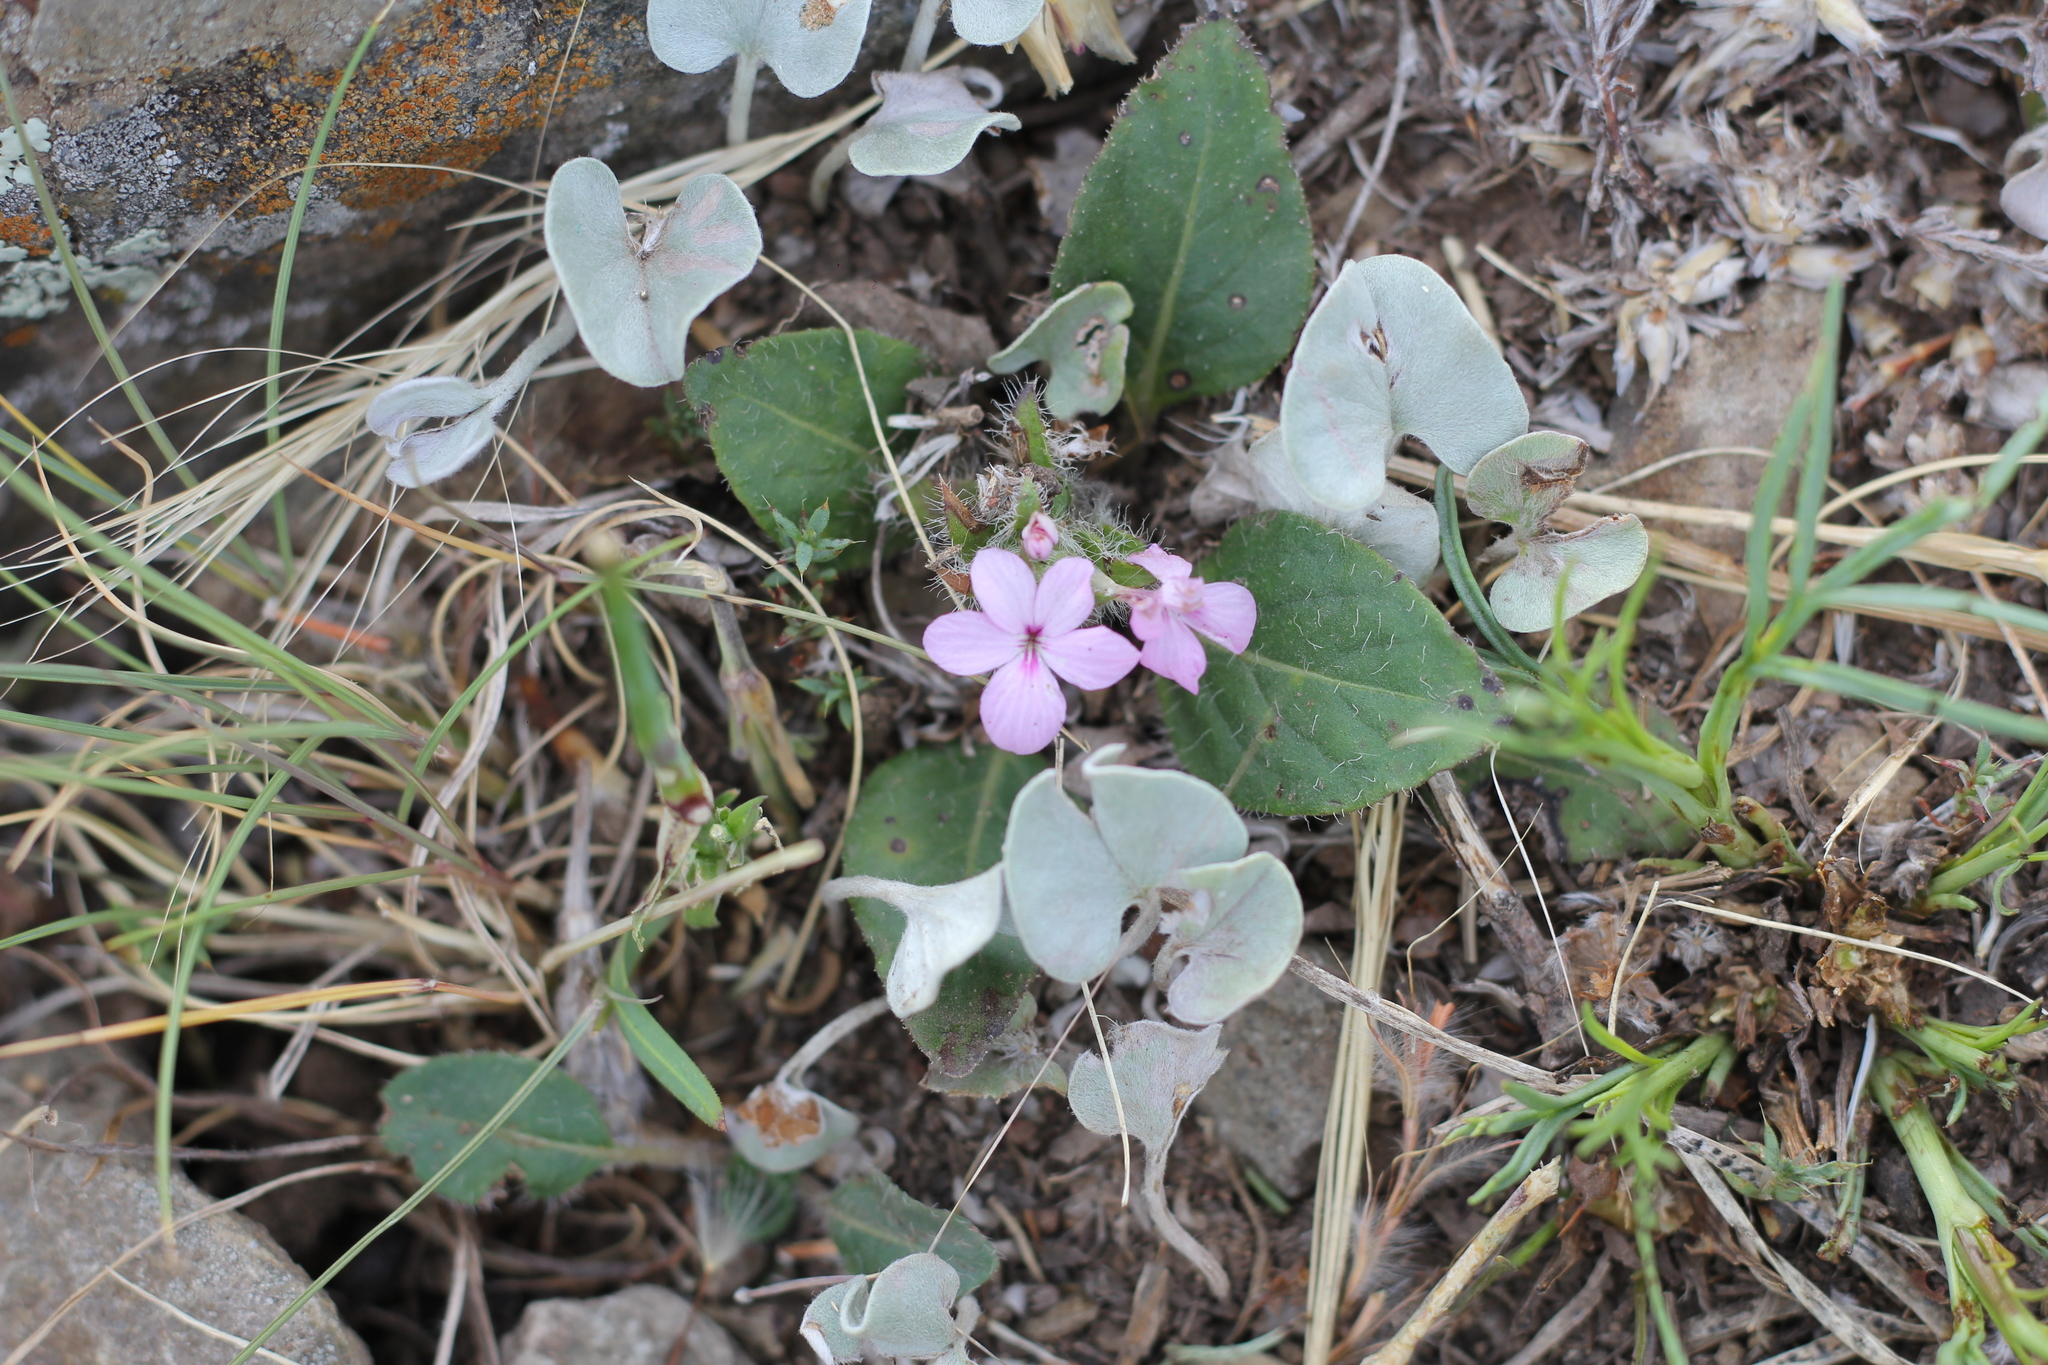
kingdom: Plantae
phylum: Tracheophyta
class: Magnoliopsida
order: Lamiales
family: Acanthaceae
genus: Stenandrium
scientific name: Stenandrium dulce
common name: Pinklet
